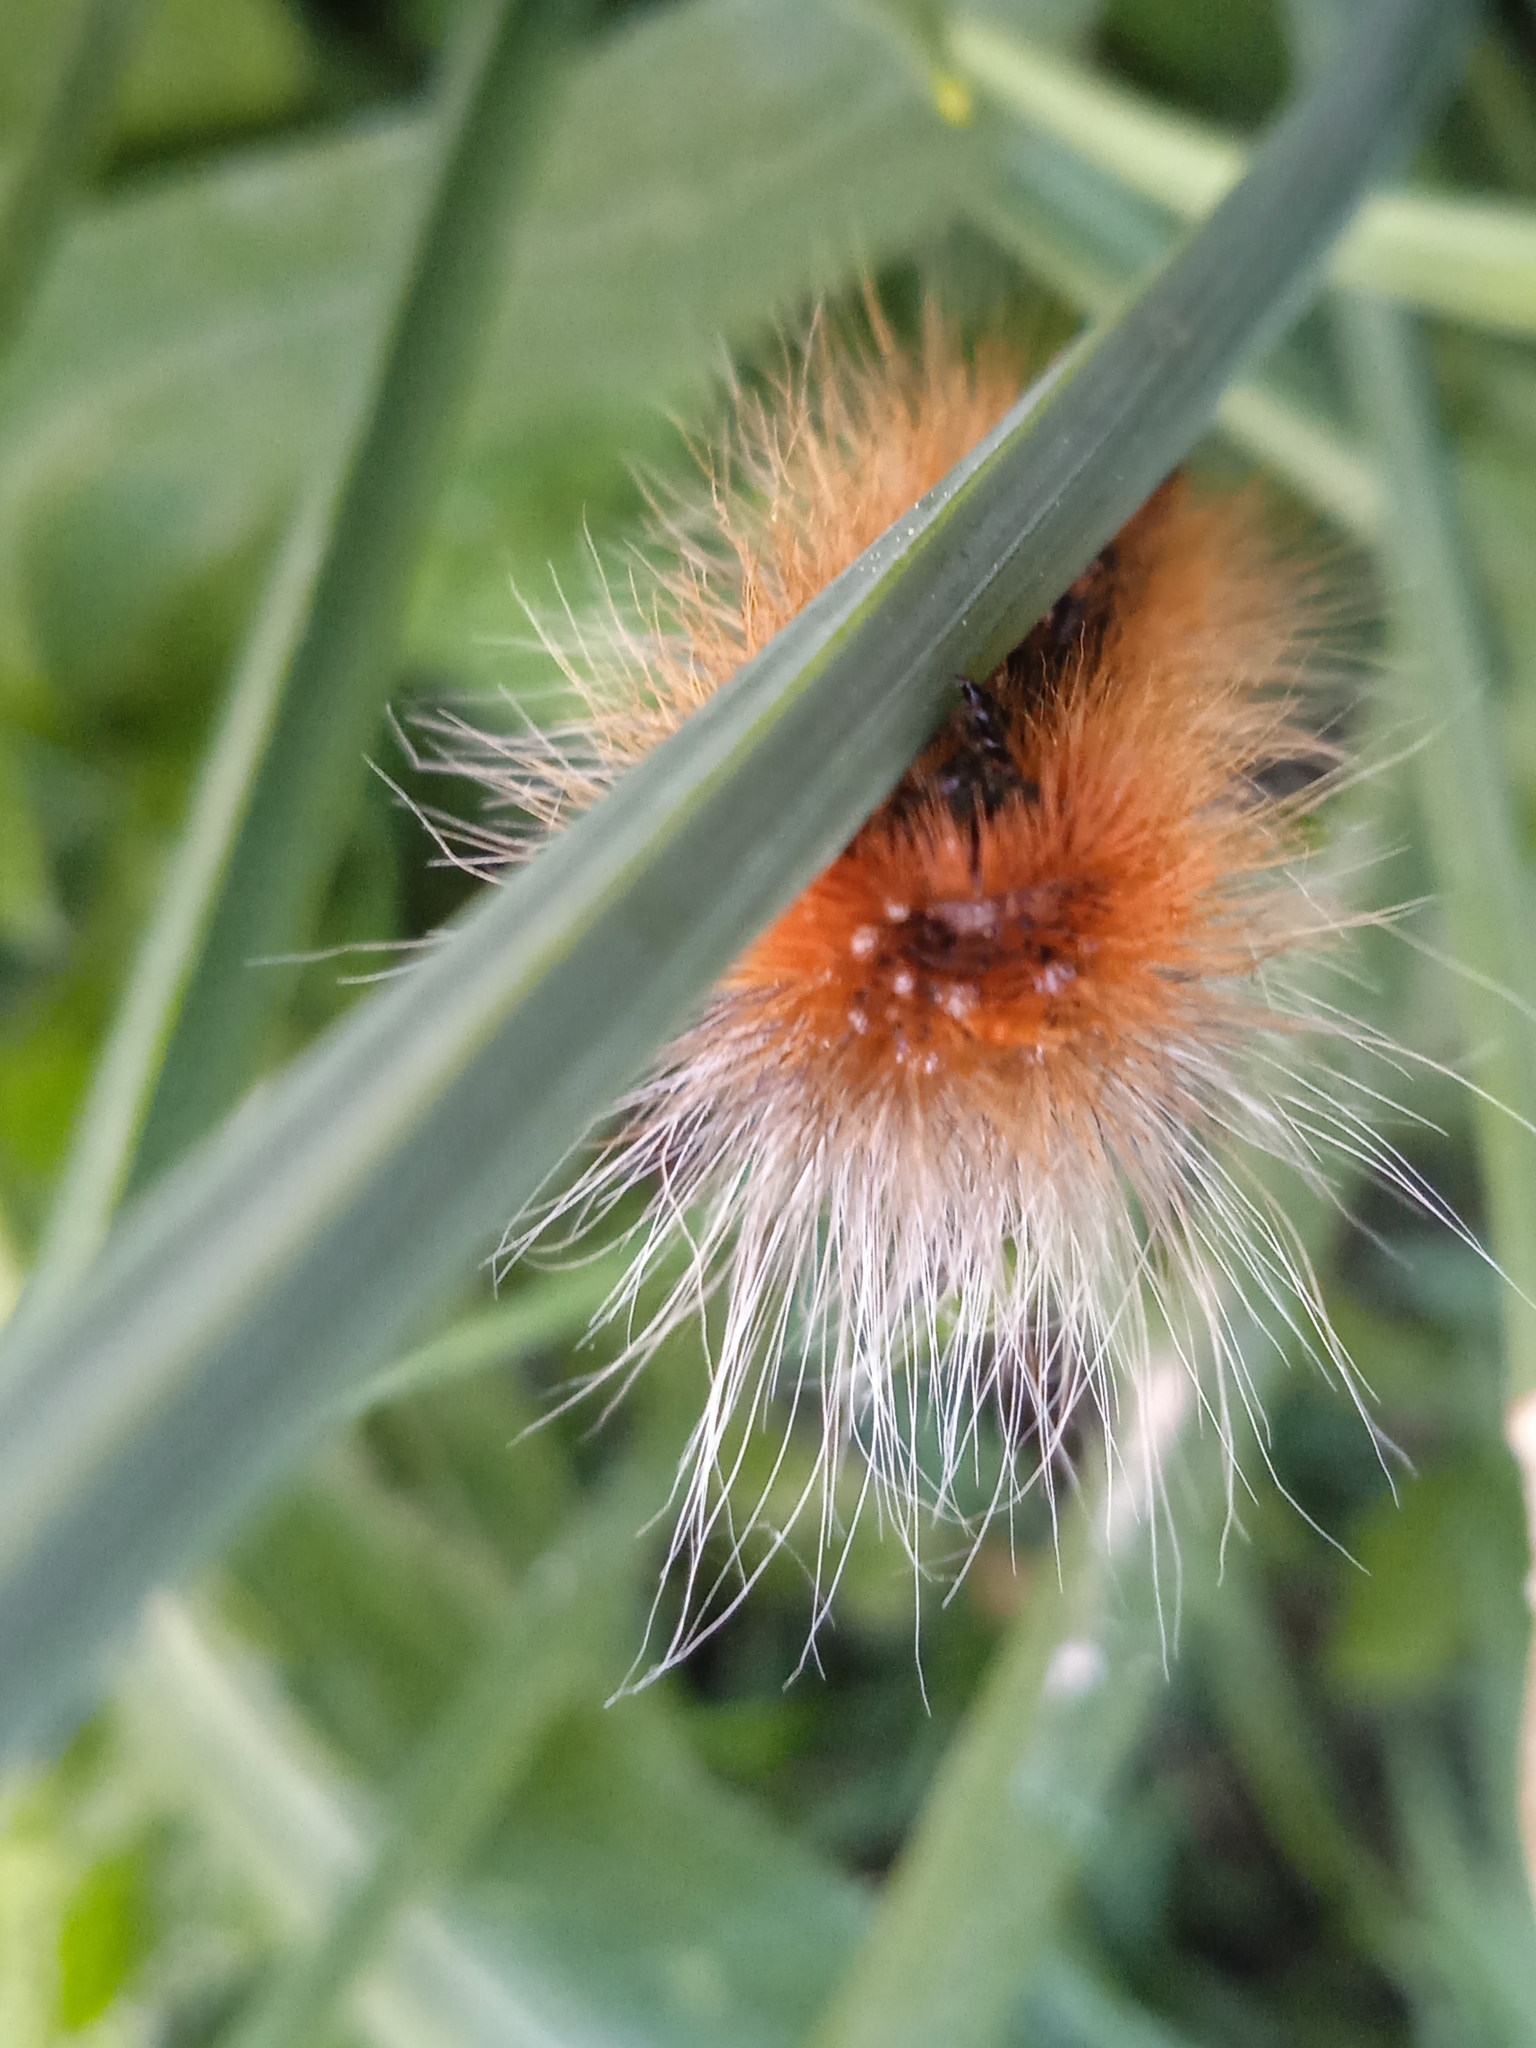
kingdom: Animalia
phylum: Arthropoda
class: Insecta
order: Lepidoptera
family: Erebidae
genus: Arctia
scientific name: Arctia caja
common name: Garden tiger
